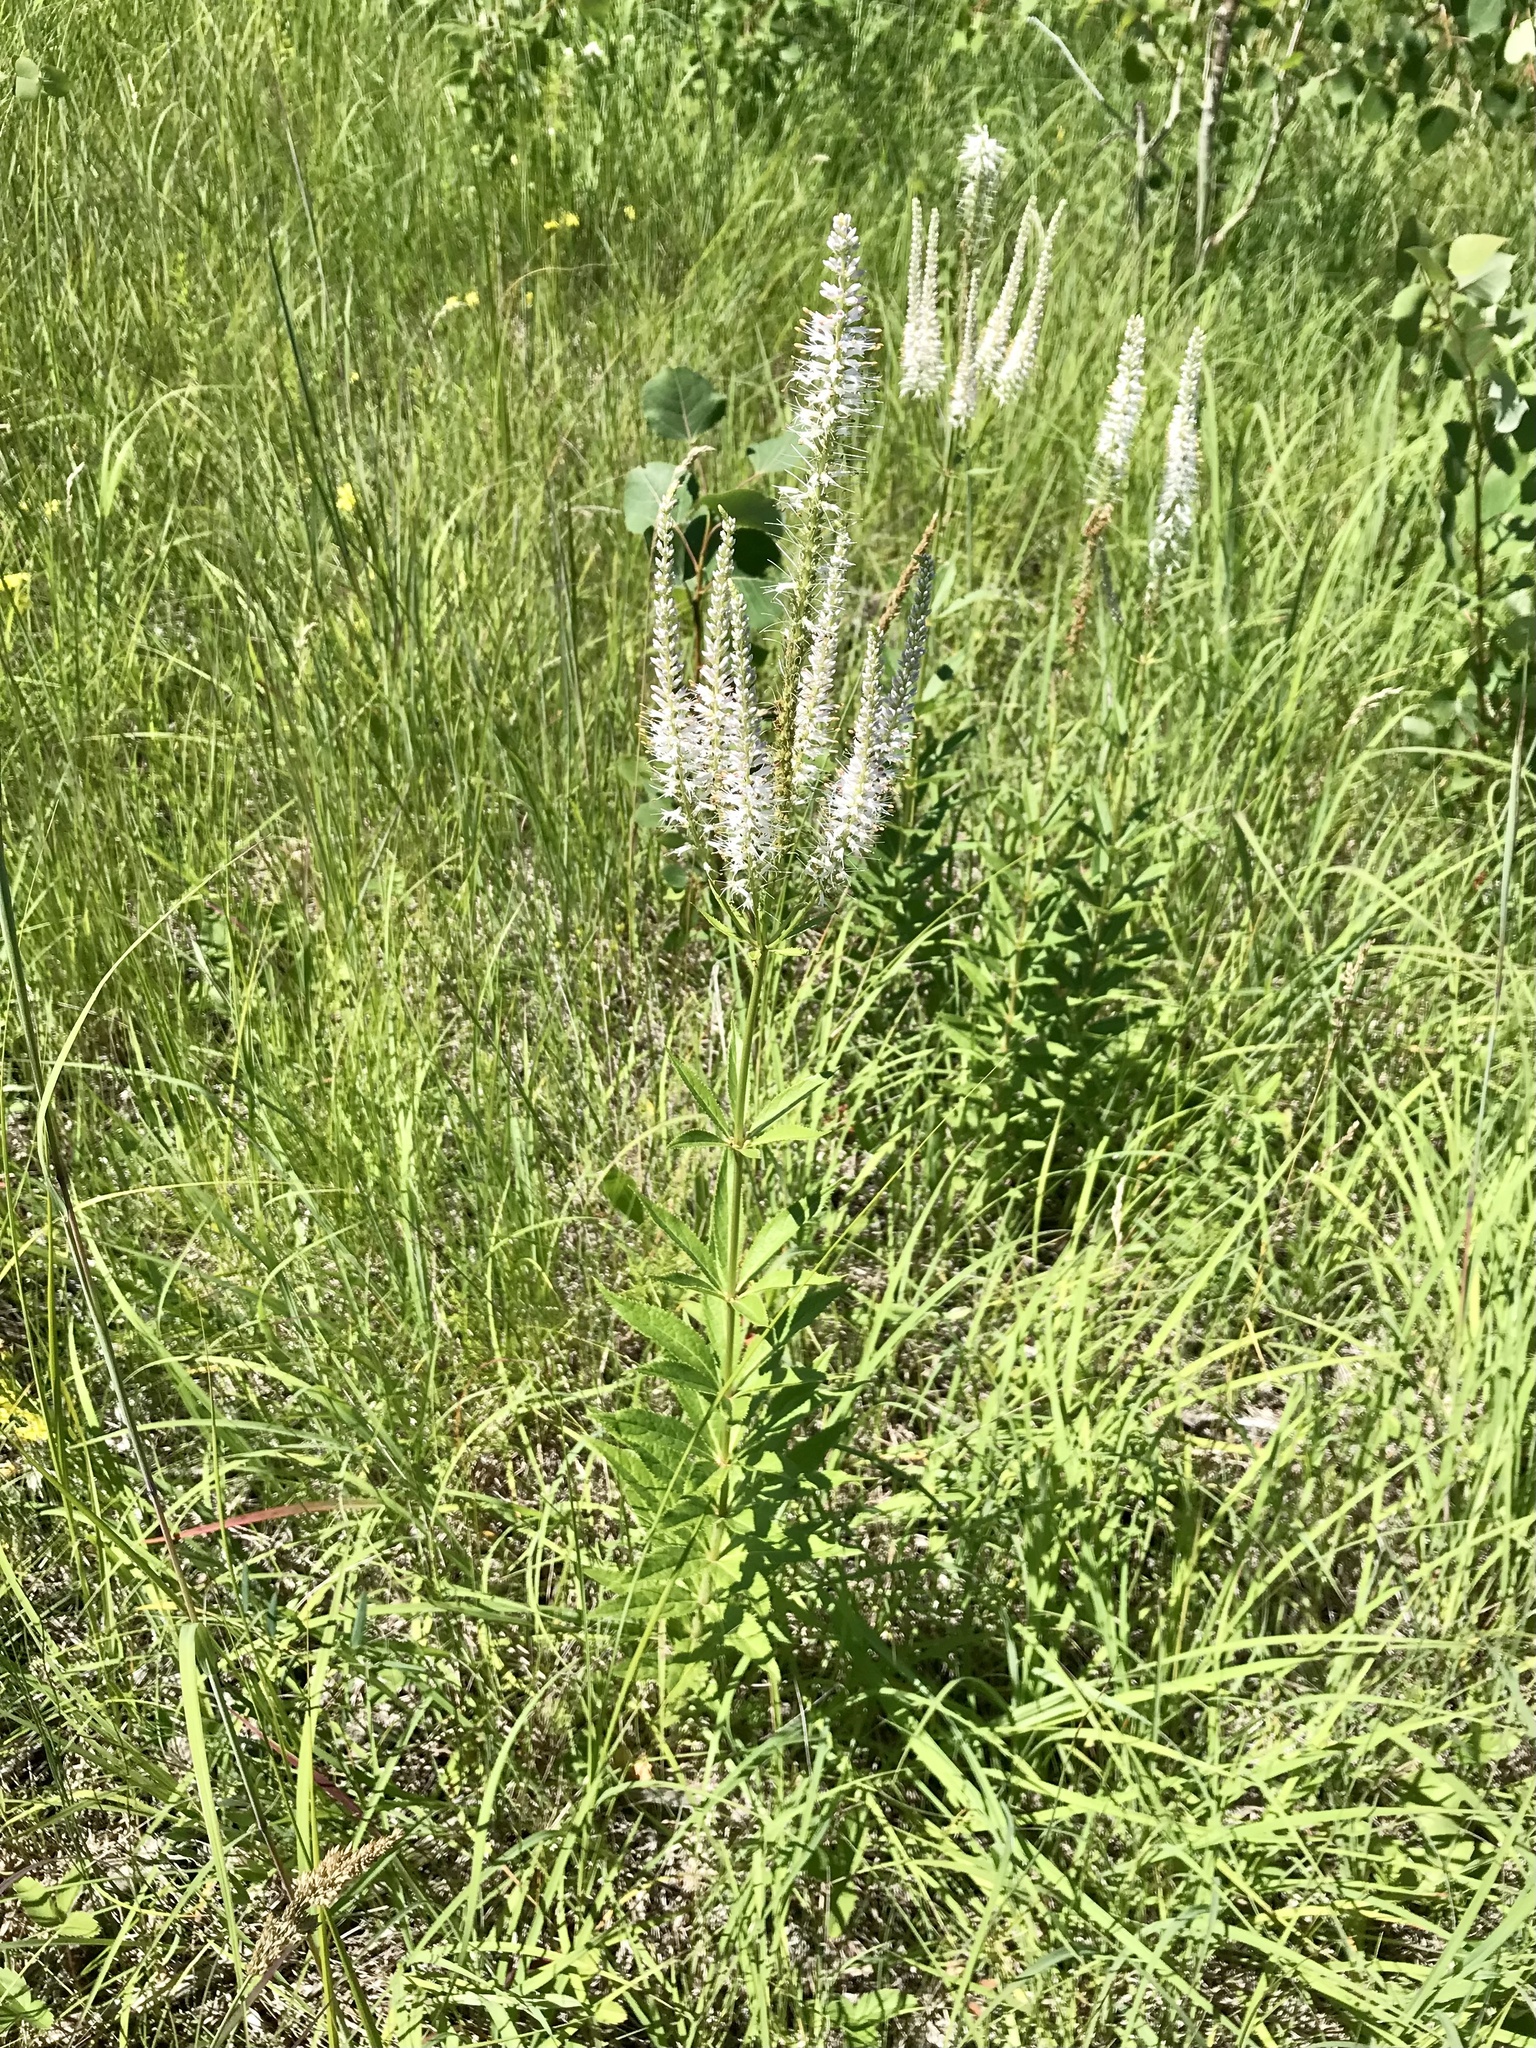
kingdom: Plantae
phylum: Tracheophyta
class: Magnoliopsida
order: Lamiales
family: Plantaginaceae
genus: Veronicastrum
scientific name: Veronicastrum virginicum
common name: Blackroot
